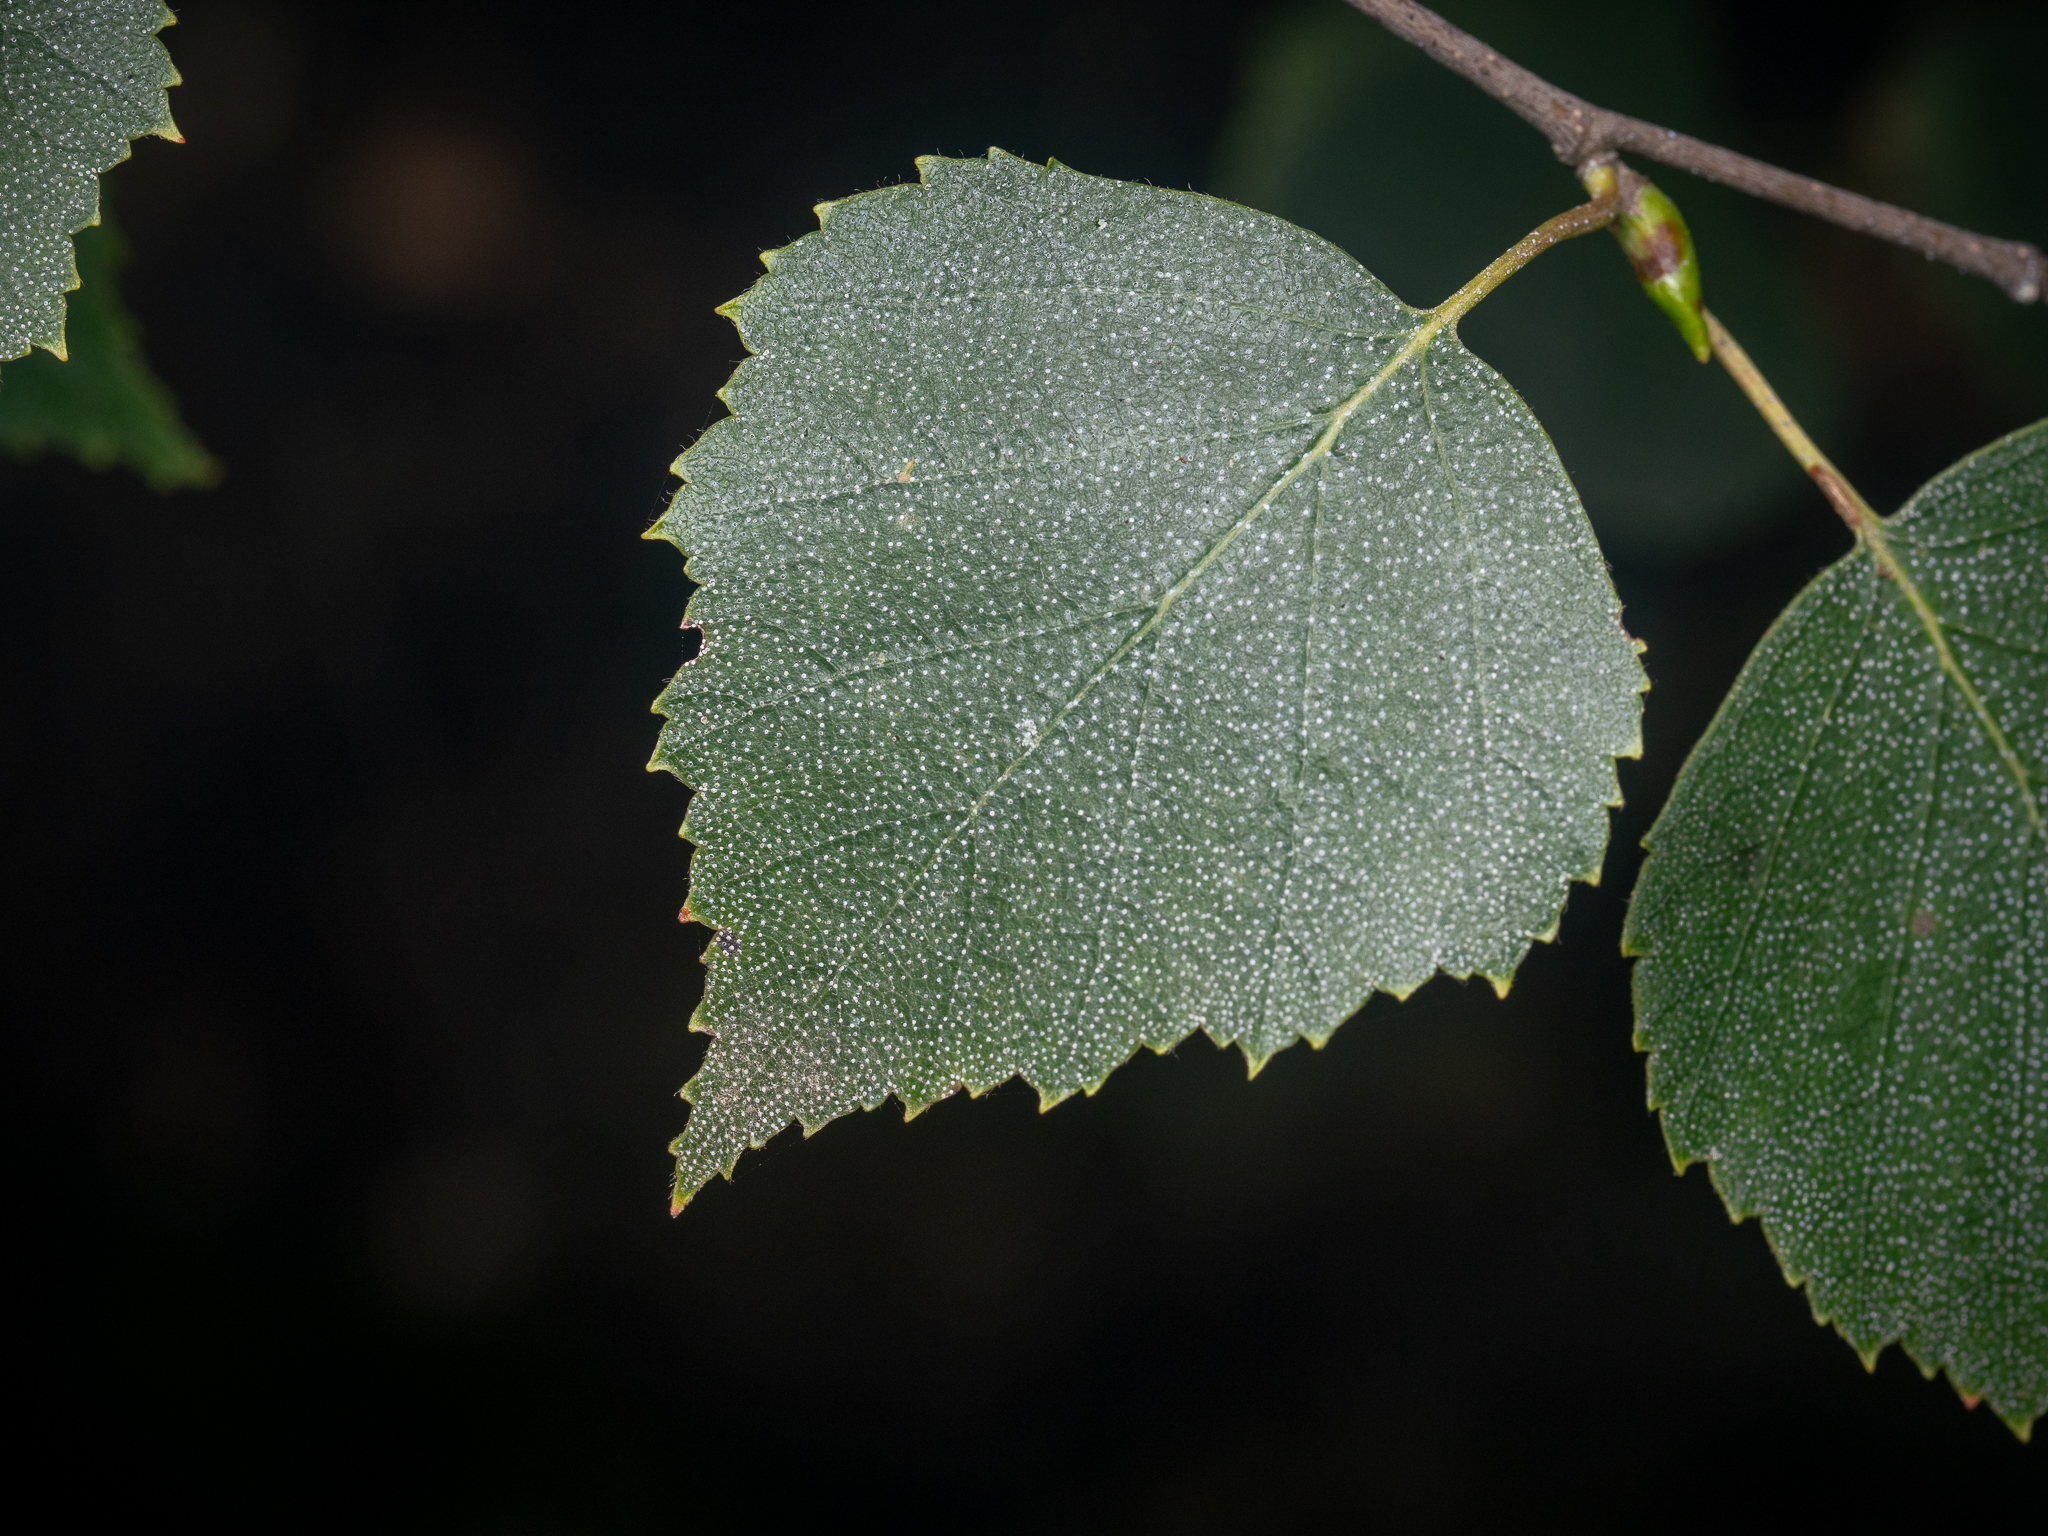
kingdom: Plantae
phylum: Tracheophyta
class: Magnoliopsida
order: Fagales
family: Betulaceae
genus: Betula
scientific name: Betula pendula
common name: Silver birch
